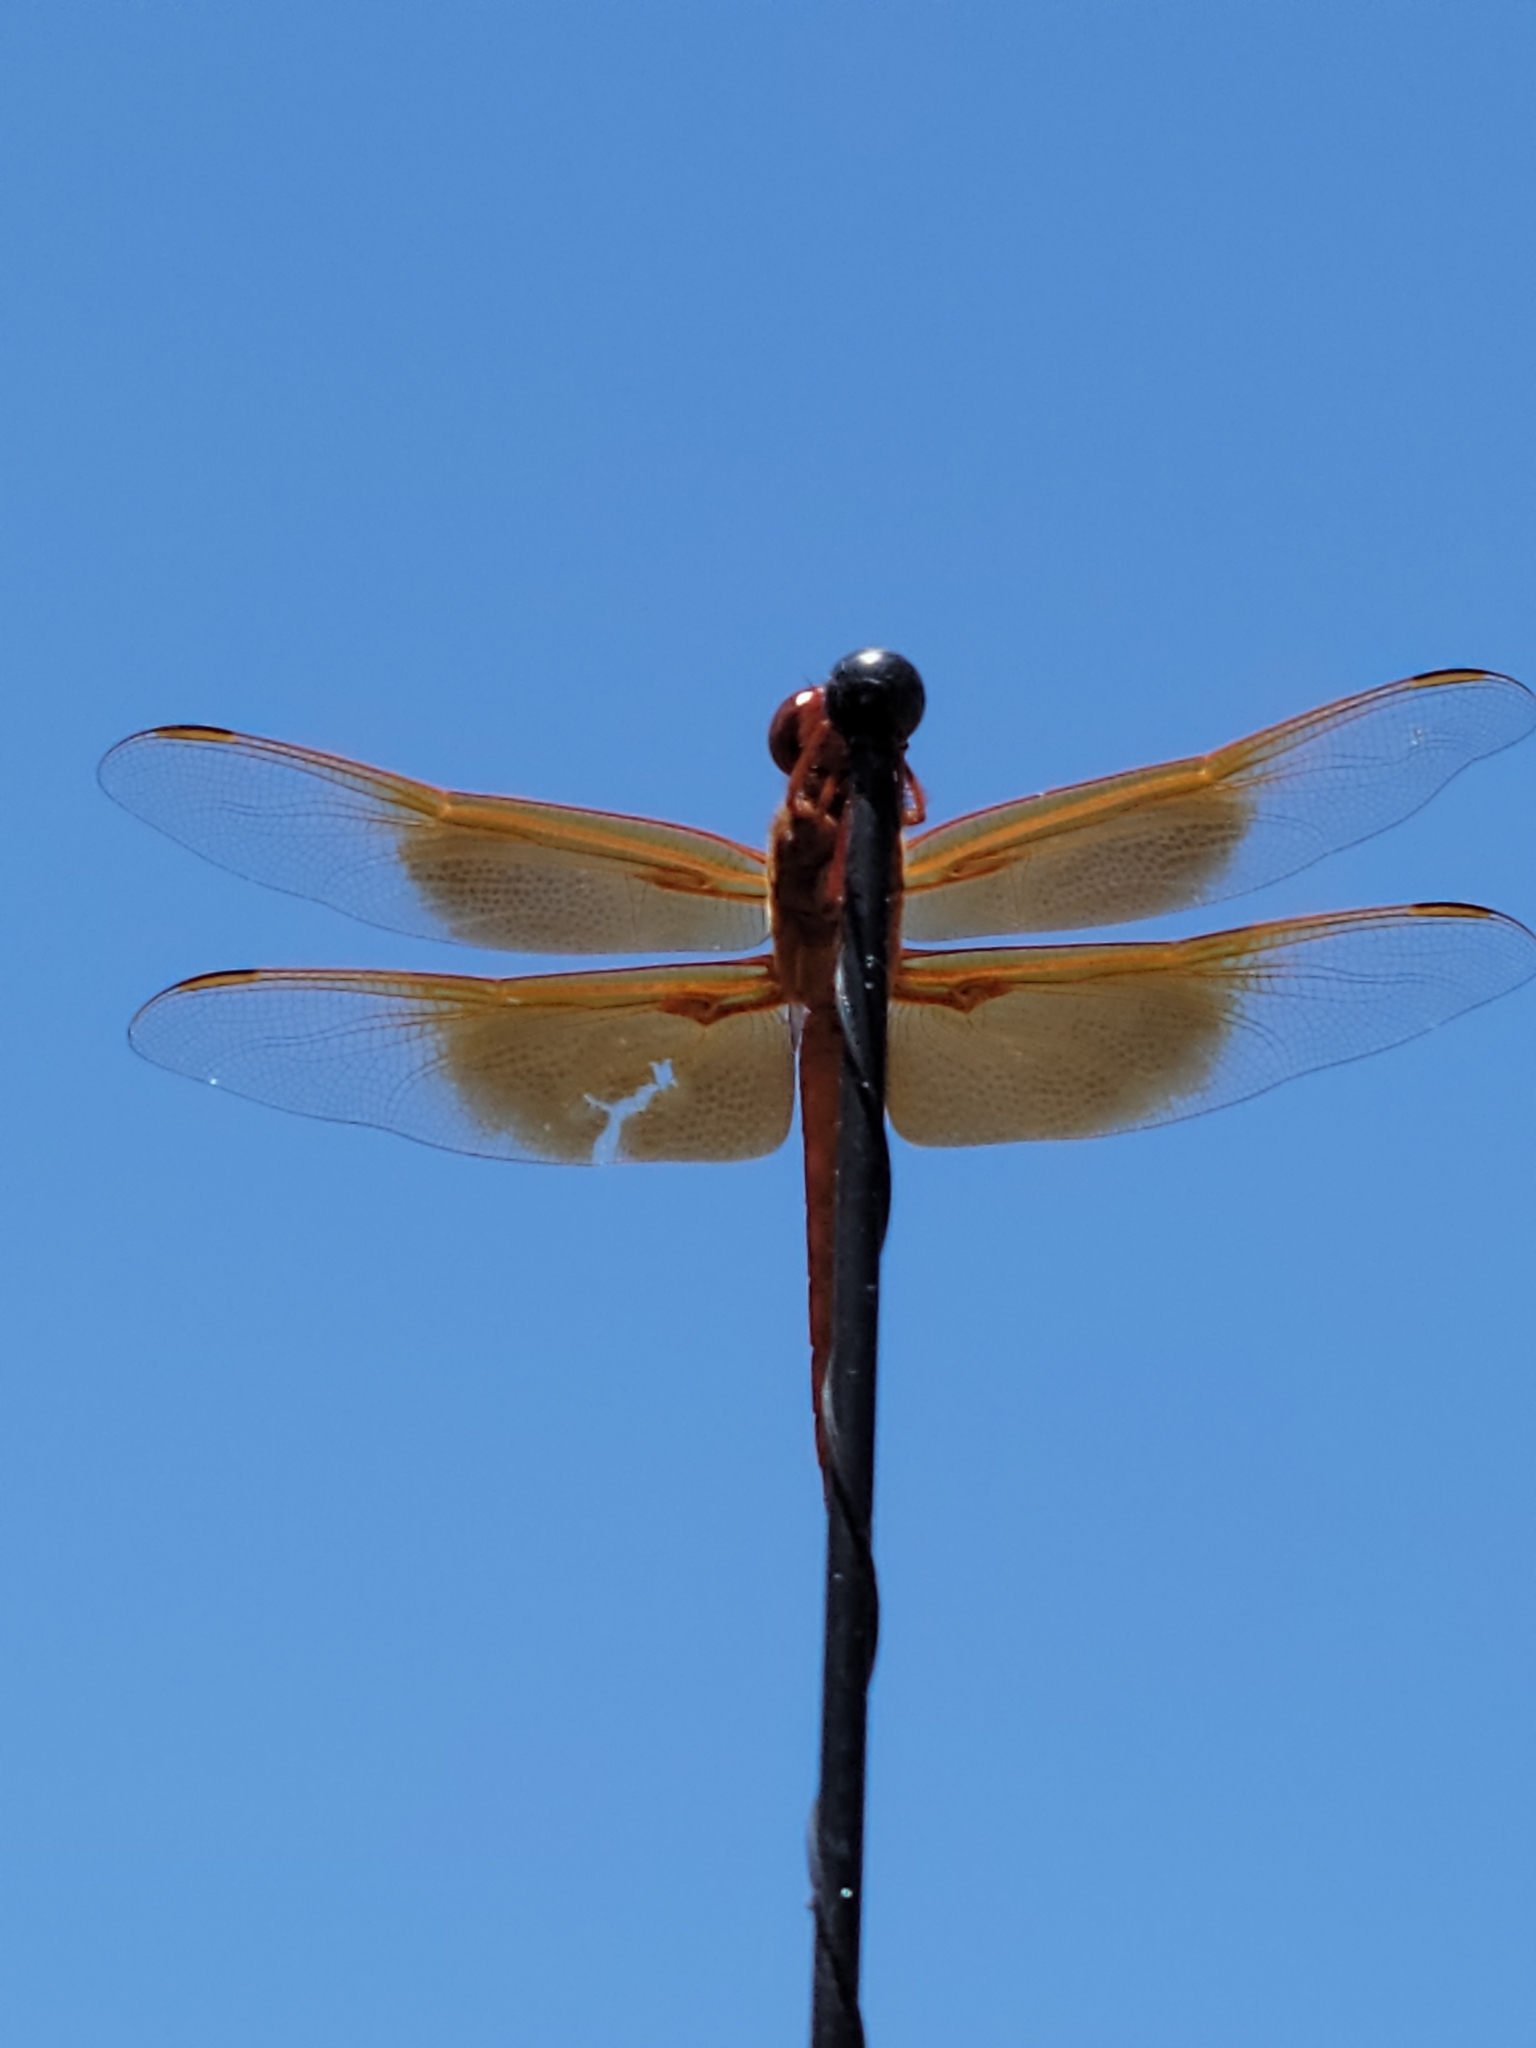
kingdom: Animalia
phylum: Arthropoda
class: Insecta
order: Odonata
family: Libellulidae
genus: Libellula
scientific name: Libellula saturata
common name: Flame skimmer
